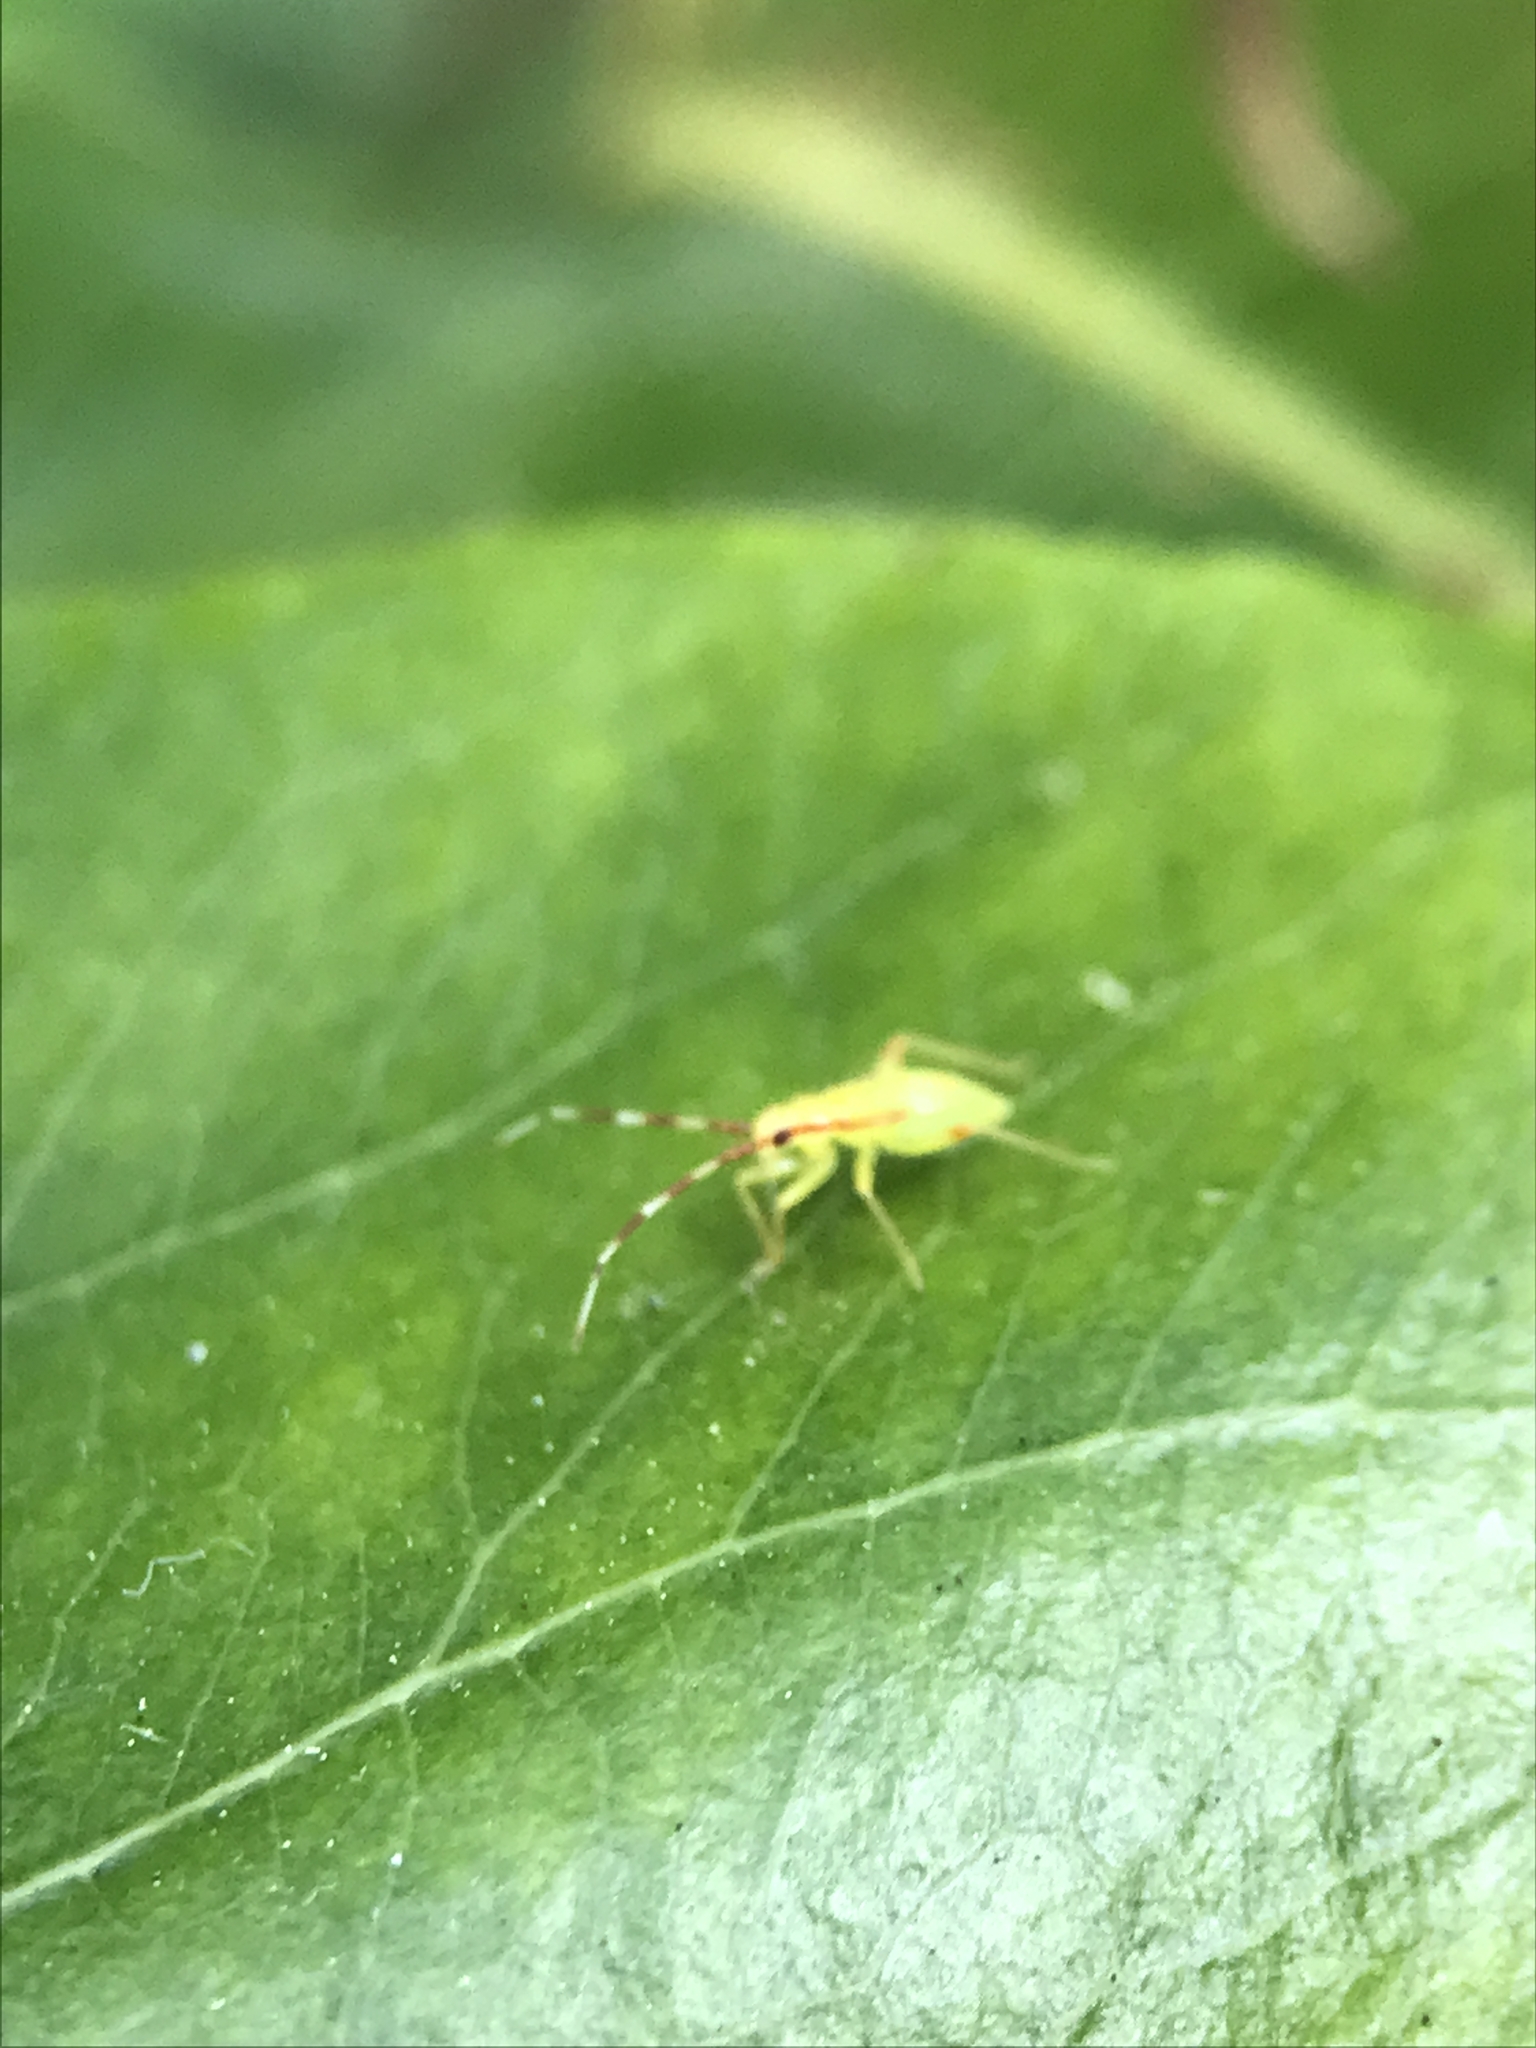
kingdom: Animalia
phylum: Arthropoda
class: Insecta
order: Hemiptera
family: Miridae
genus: Campyloneura
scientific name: Campyloneura virgula
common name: Predatory bug
